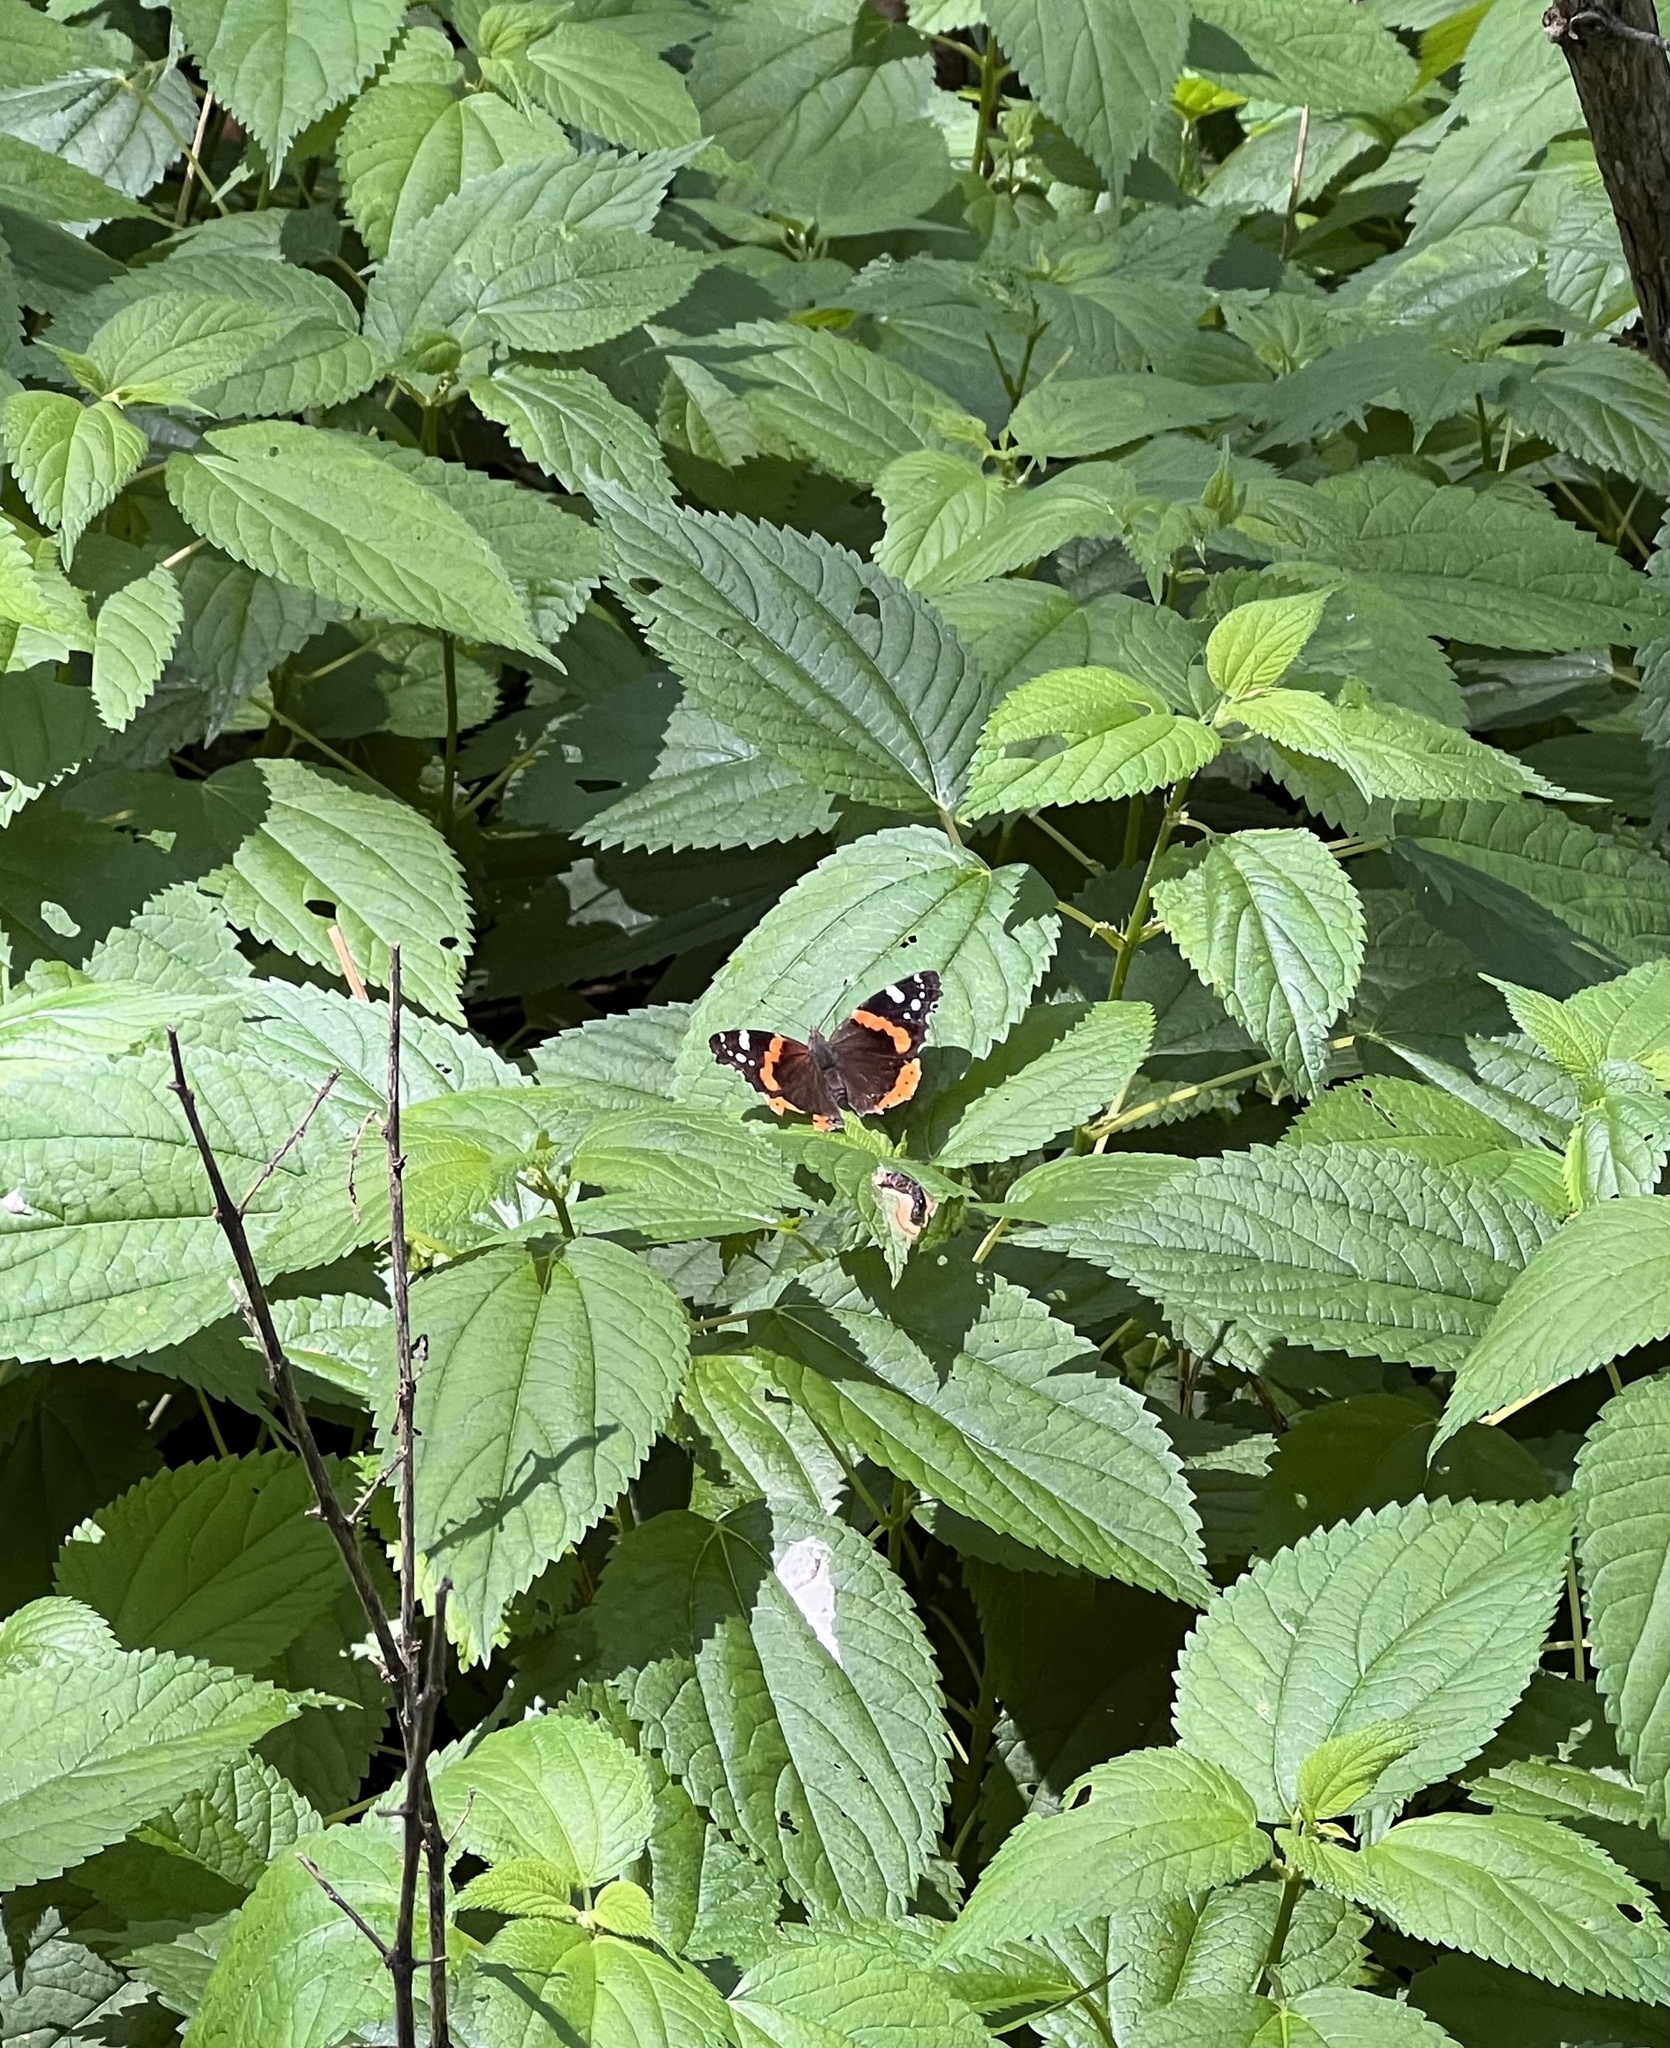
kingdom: Animalia
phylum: Arthropoda
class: Insecta
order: Lepidoptera
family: Nymphalidae
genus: Vanessa
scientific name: Vanessa atalanta
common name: Red admiral
